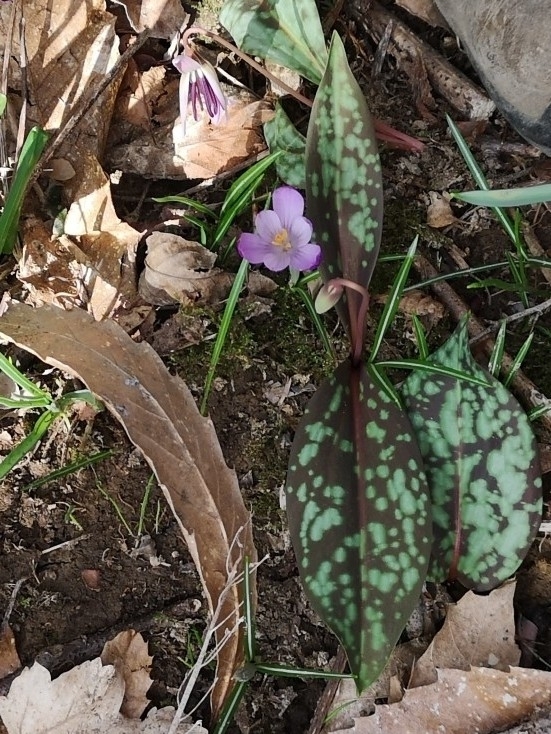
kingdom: Plantae
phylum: Tracheophyta
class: Liliopsida
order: Liliales
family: Liliaceae
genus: Erythronium
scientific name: Erythronium dens-canis
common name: Dog's-tooth-violet
